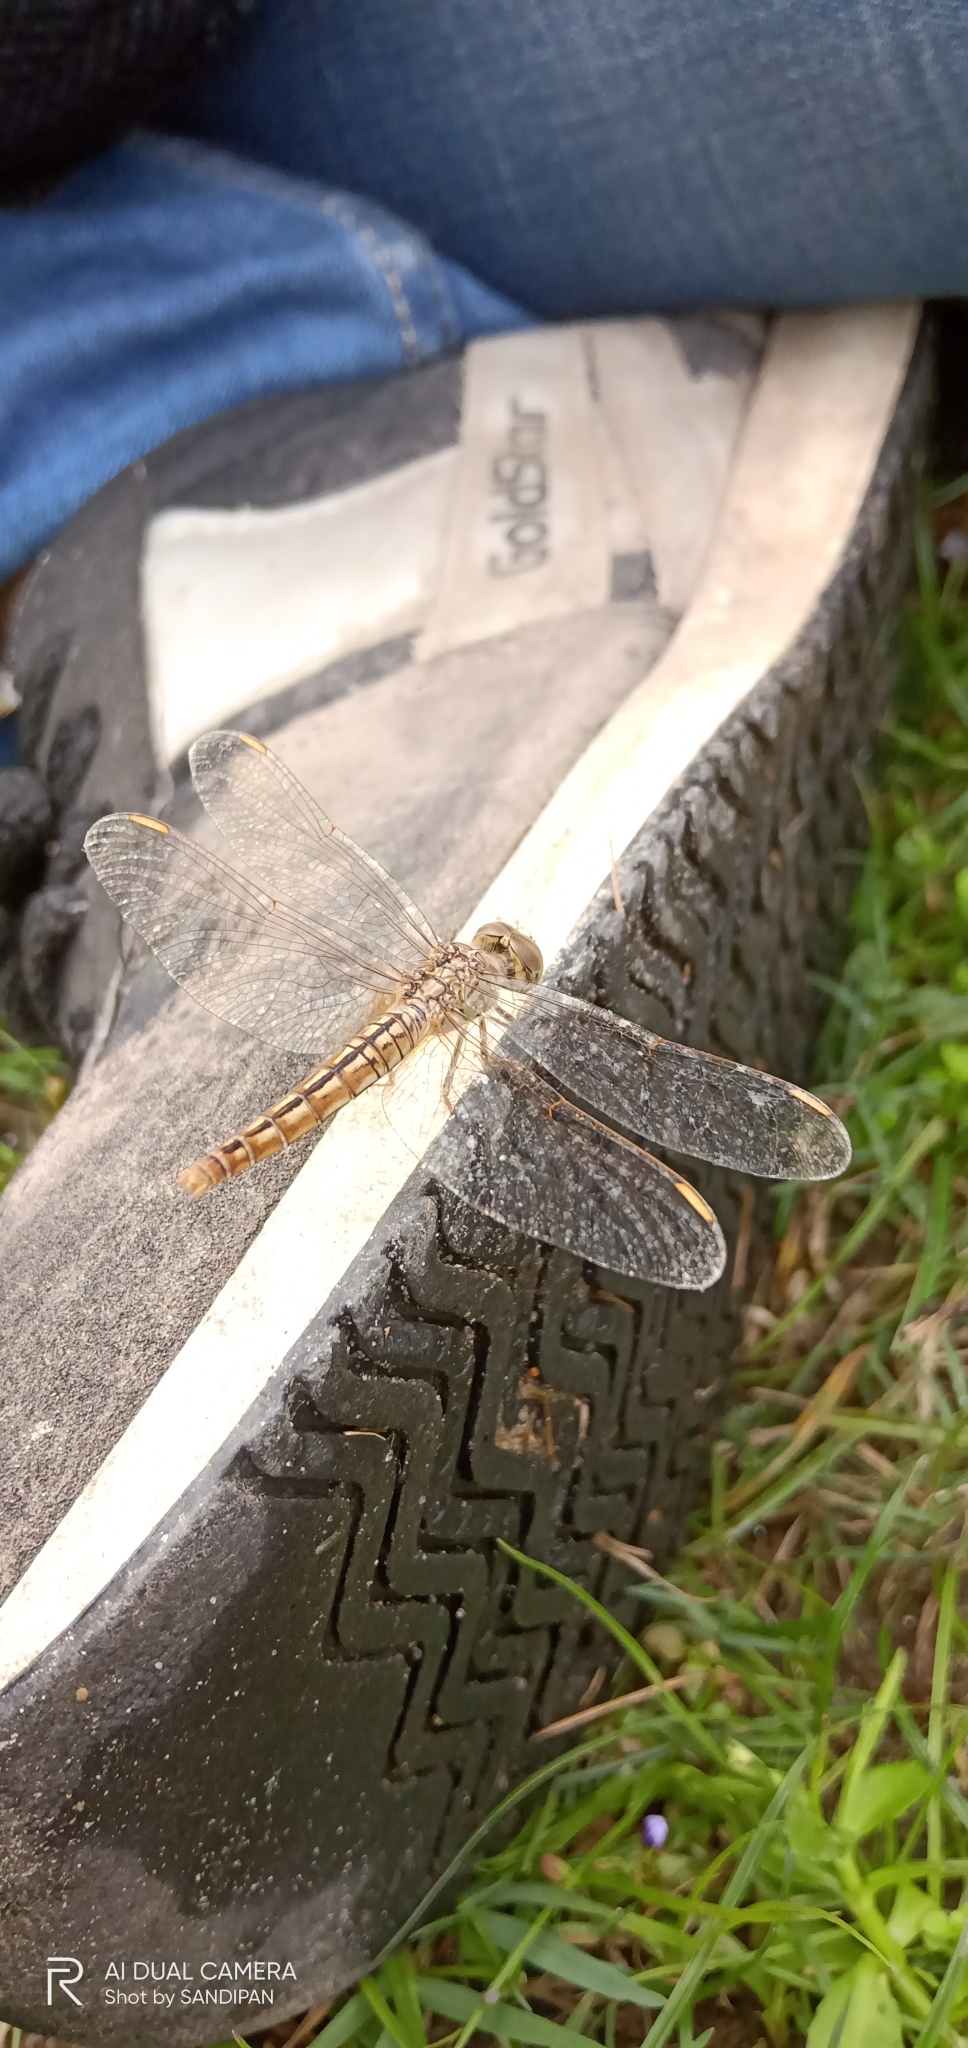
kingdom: Animalia
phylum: Arthropoda
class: Insecta
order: Odonata
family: Libellulidae
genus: Brachythemis
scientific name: Brachythemis contaminata
